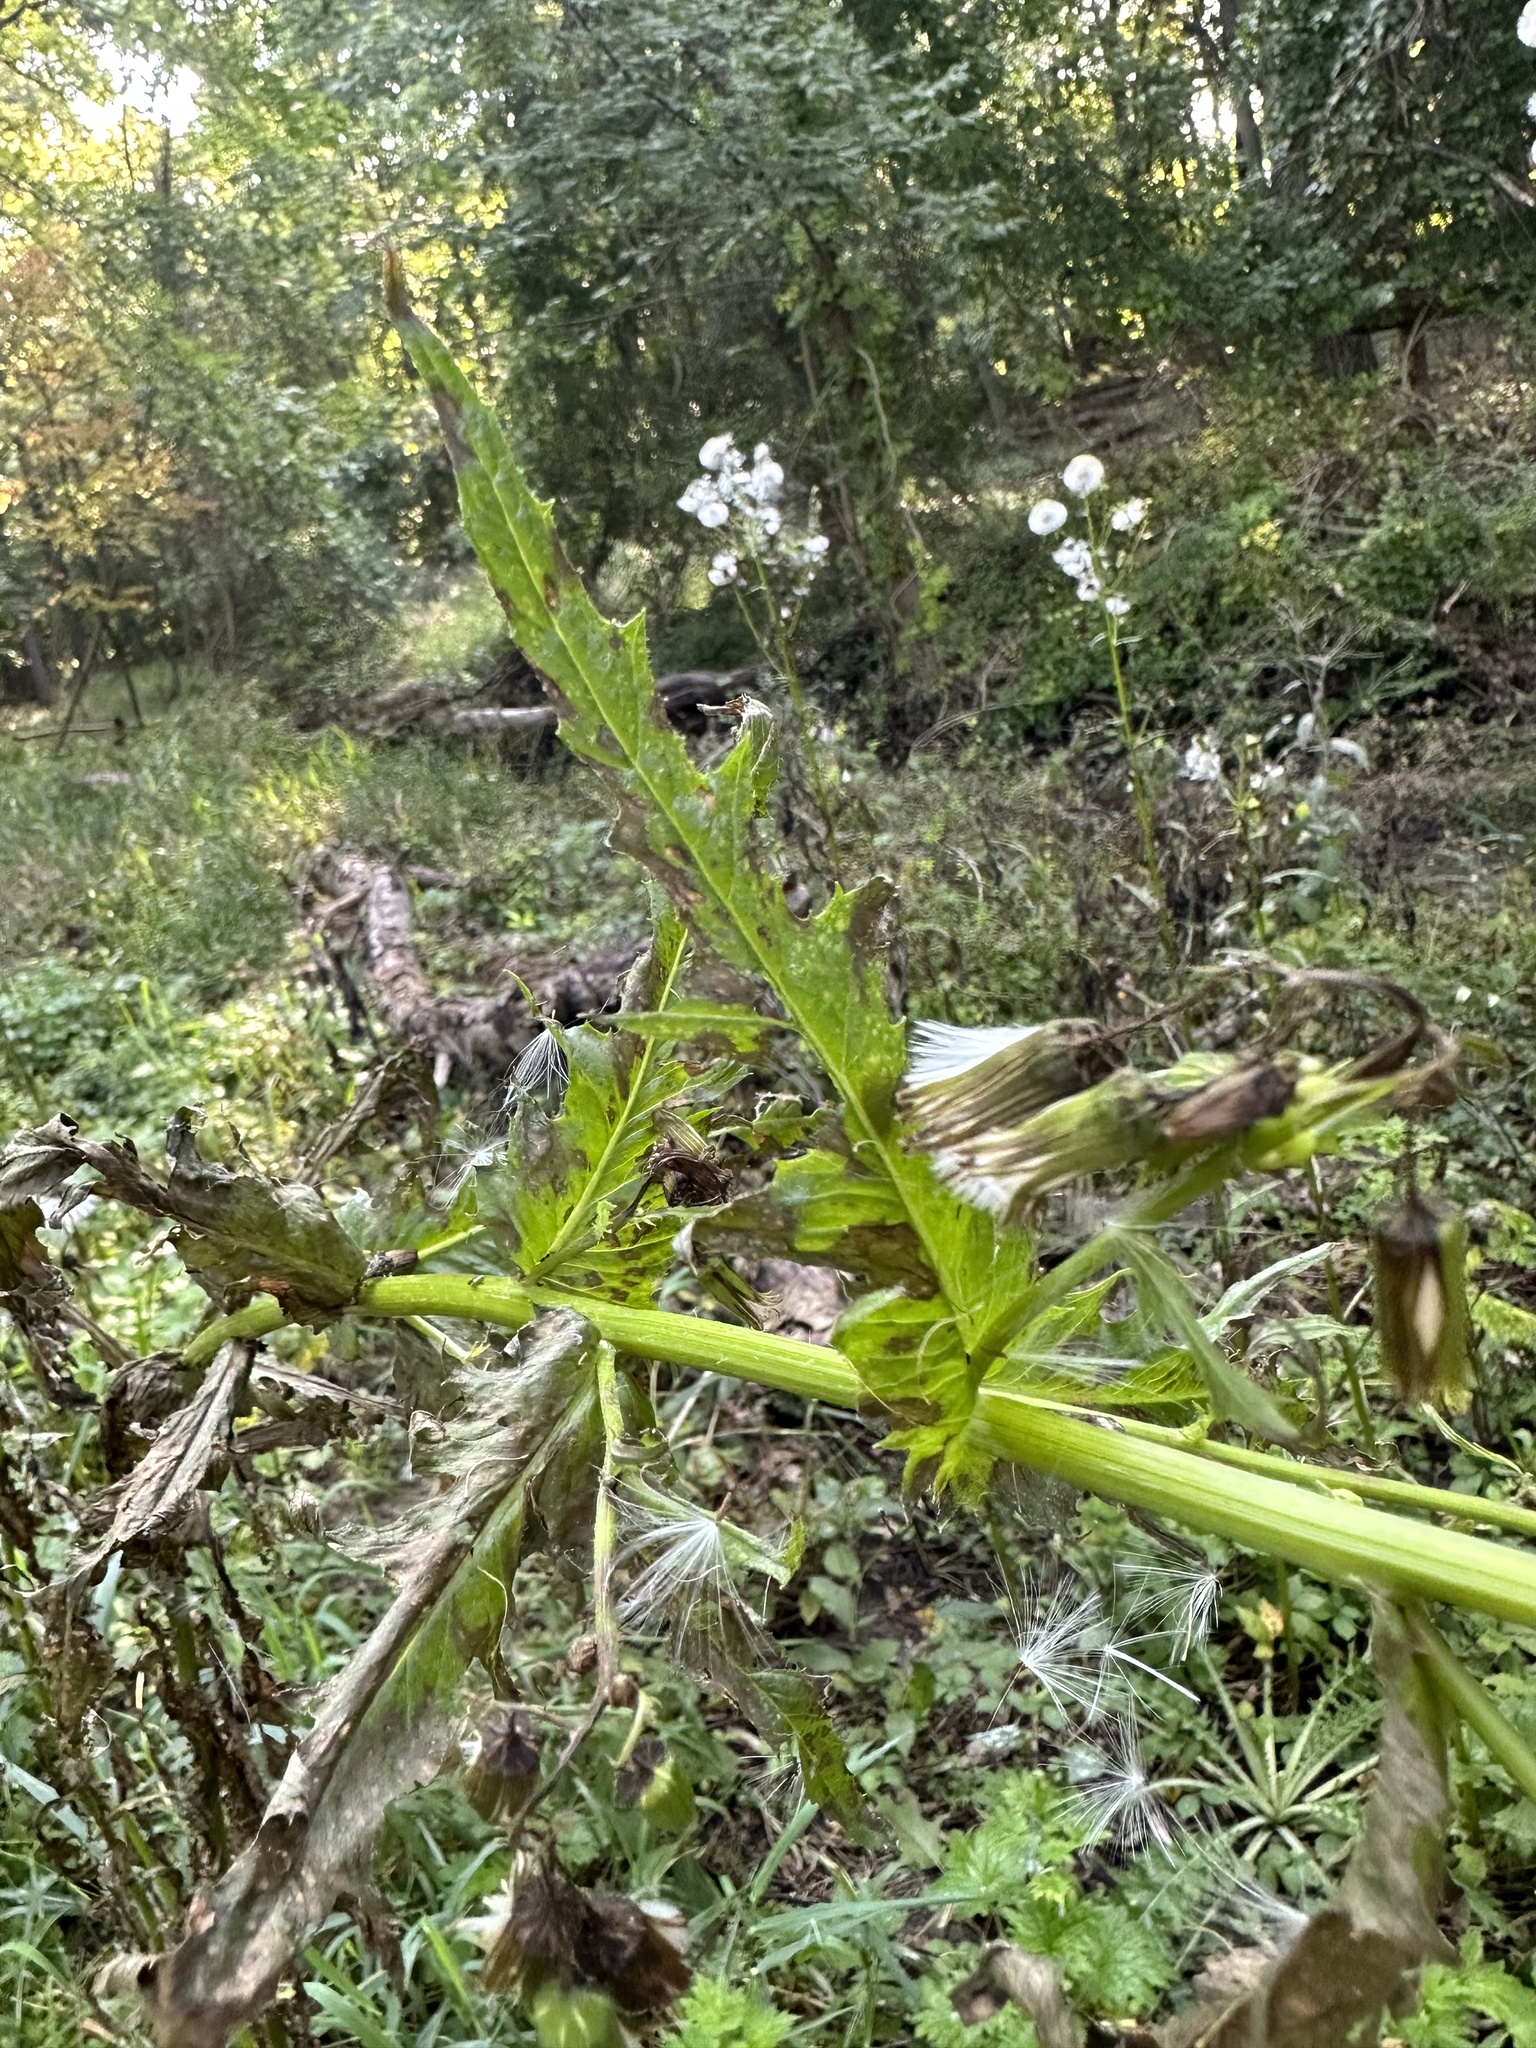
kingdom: Plantae
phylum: Tracheophyta
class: Magnoliopsida
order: Asterales
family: Asteraceae
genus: Erechtites
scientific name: Erechtites hieraciifolius
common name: American burnweed
